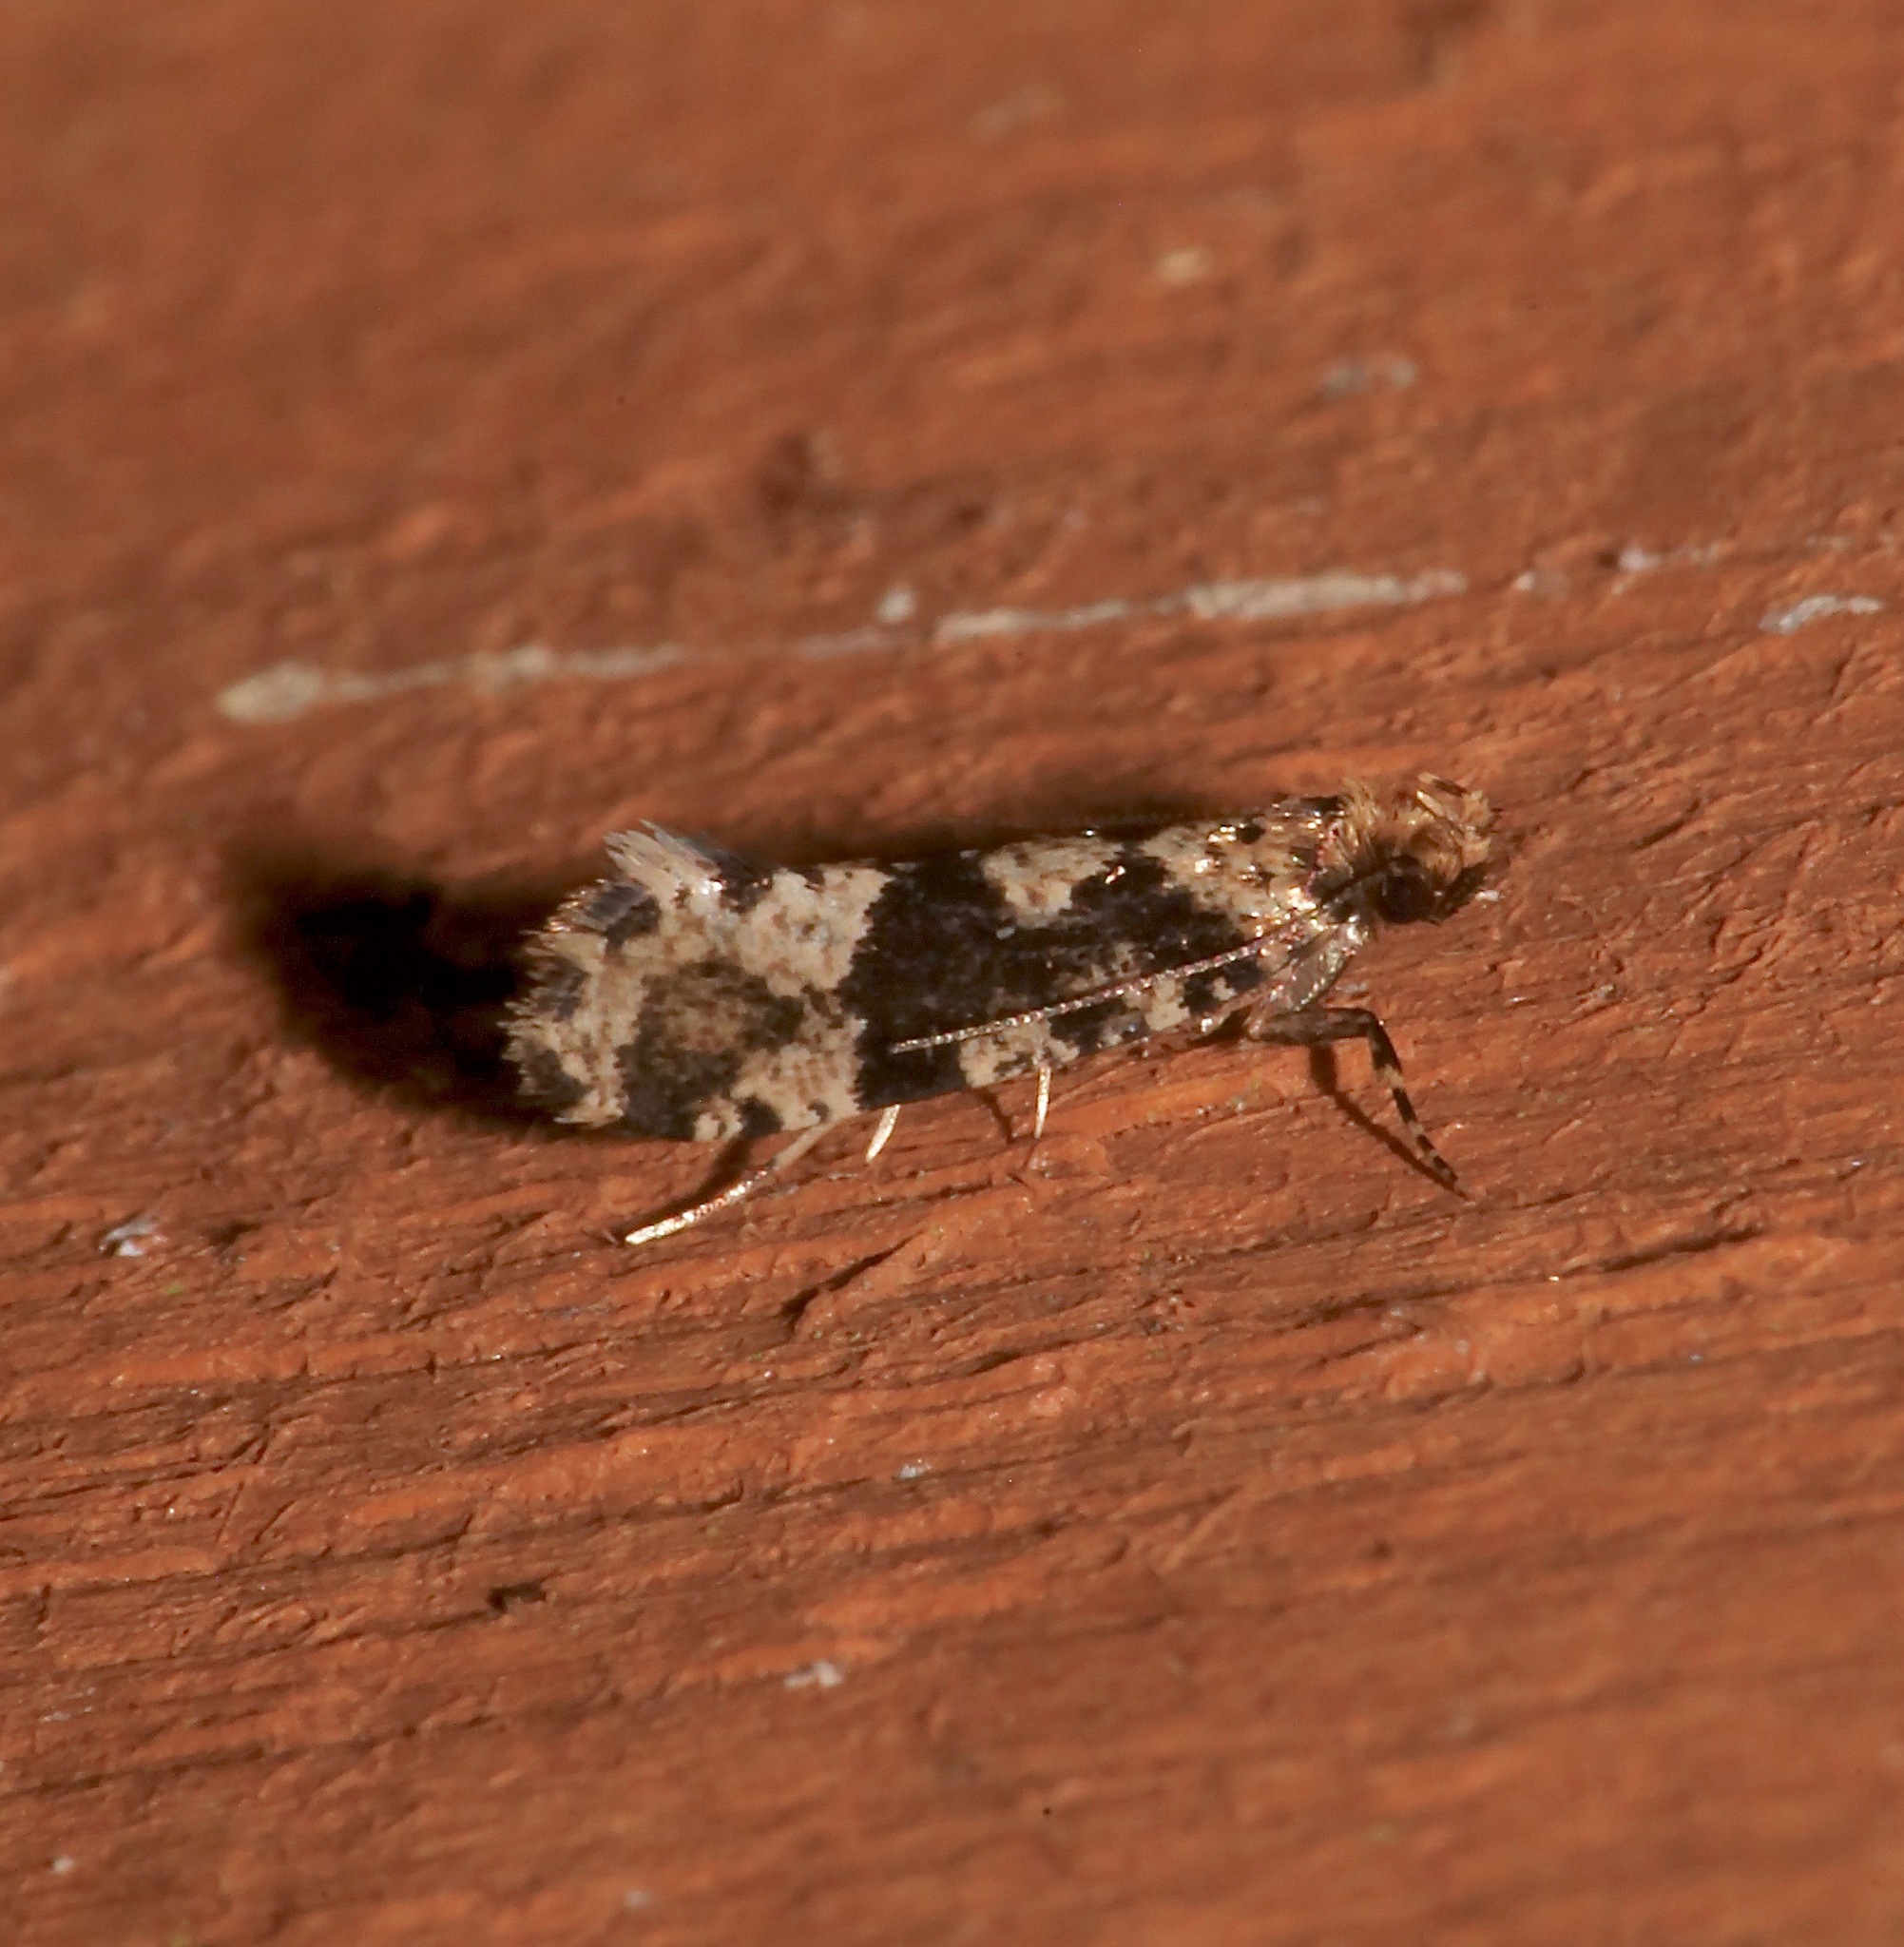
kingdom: Animalia
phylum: Arthropoda
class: Insecta
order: Lepidoptera
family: Tineidae
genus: Scardiella
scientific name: Scardiella approximatella
